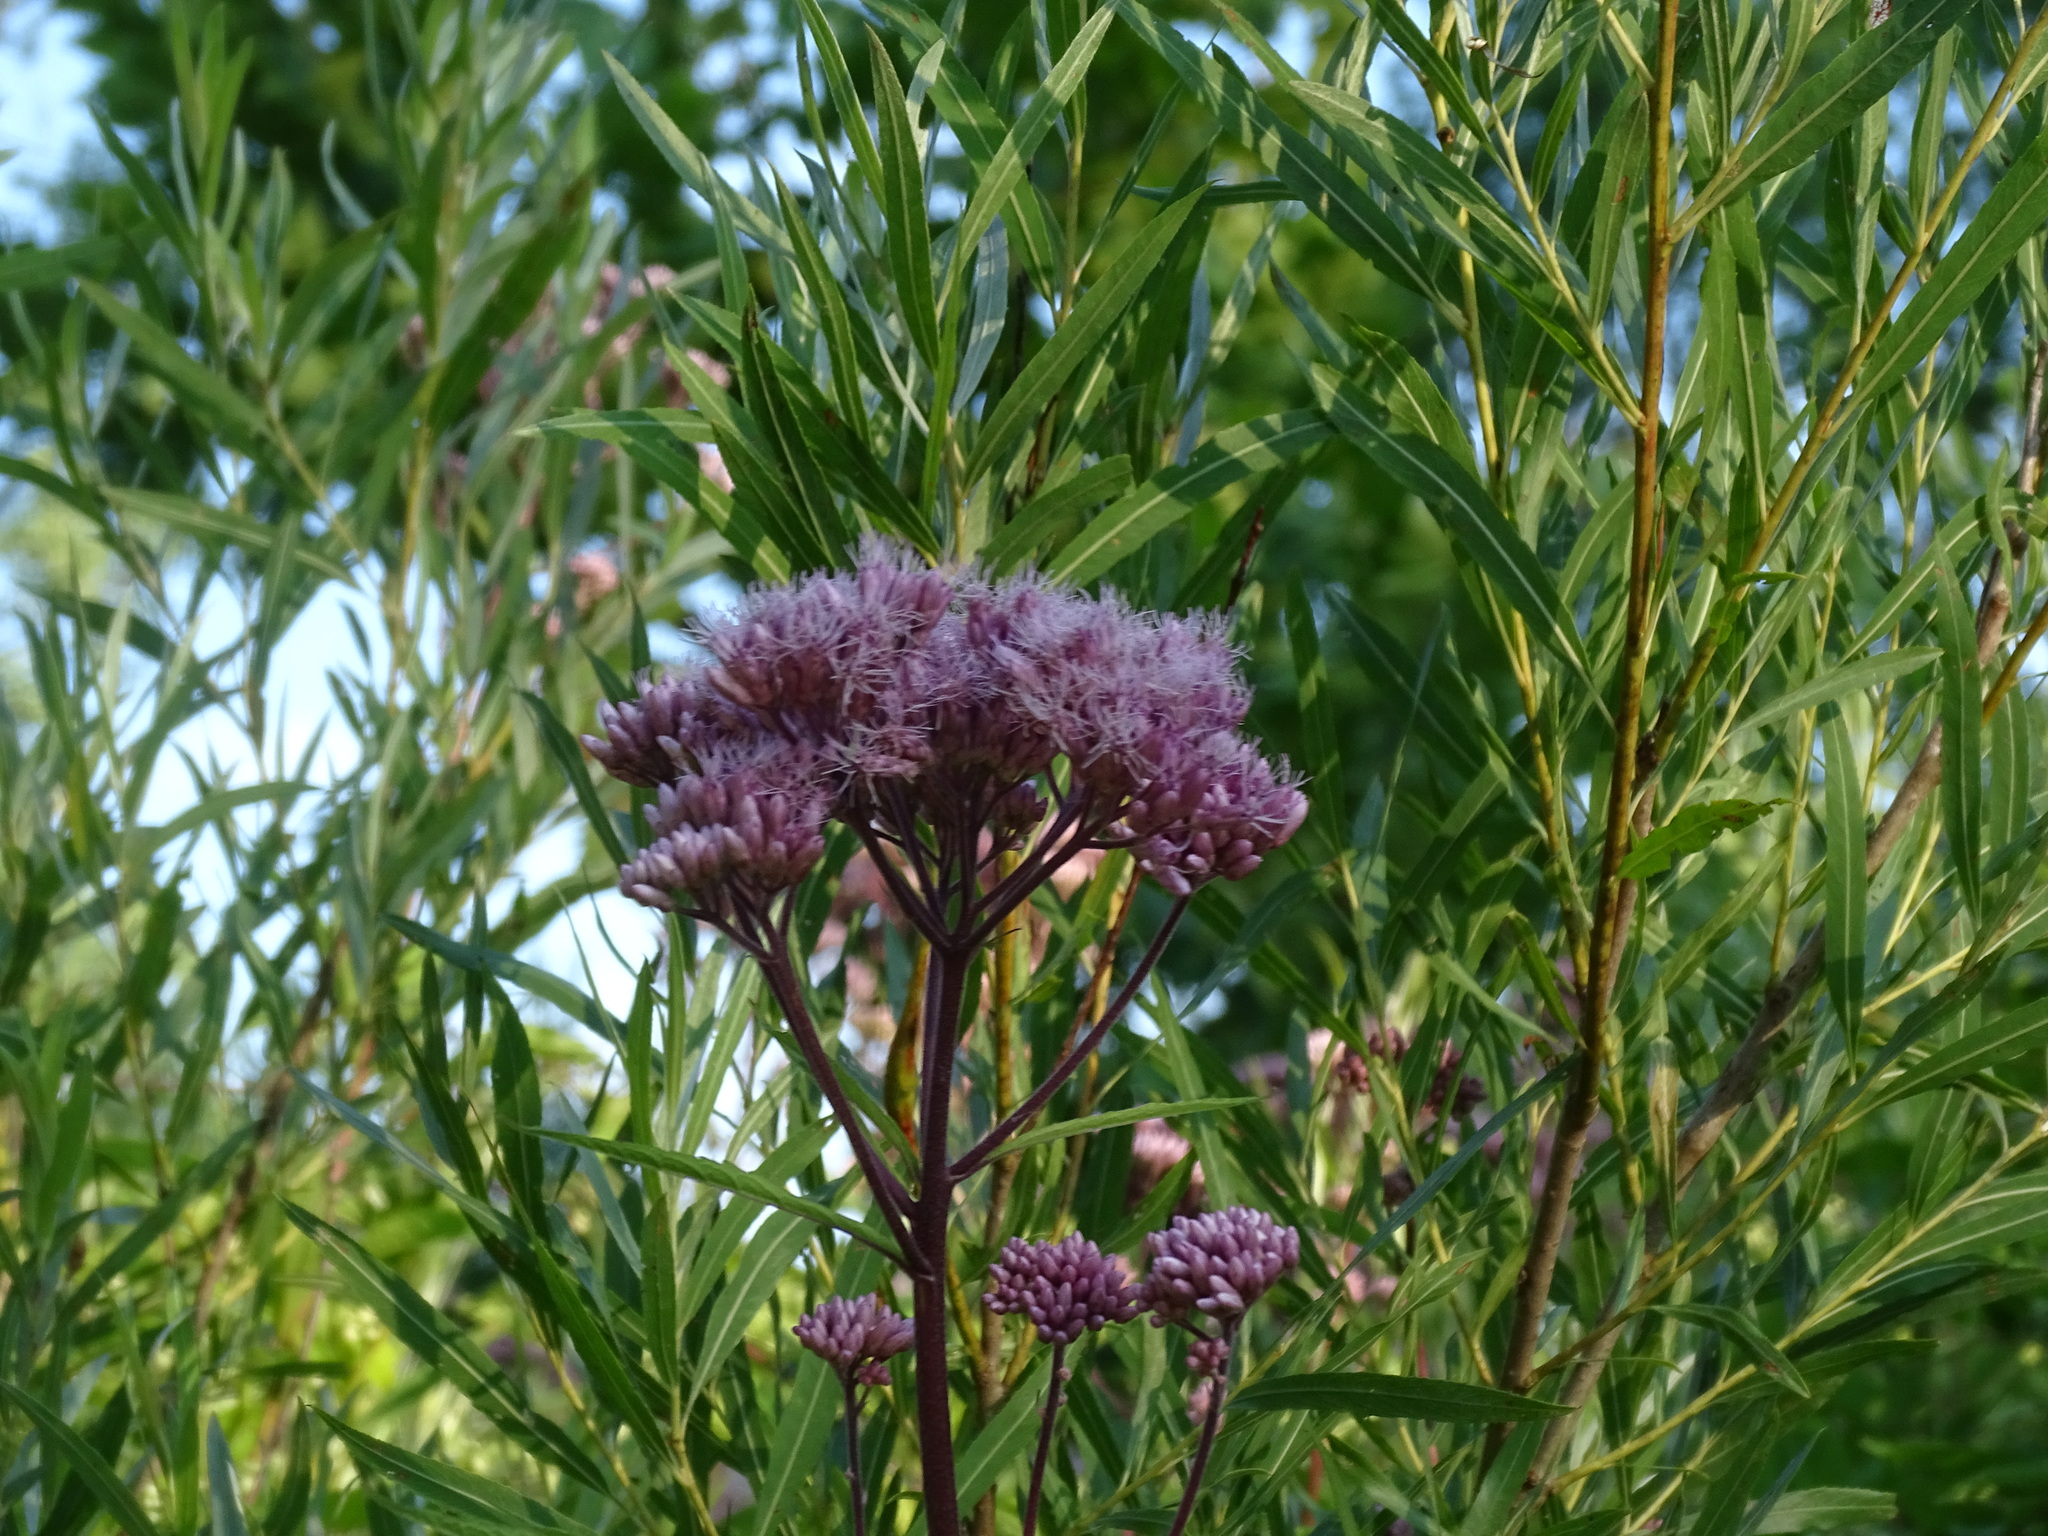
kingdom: Plantae
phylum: Tracheophyta
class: Magnoliopsida
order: Asterales
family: Asteraceae
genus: Eutrochium
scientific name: Eutrochium maculatum
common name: Spotted joe pye weed
